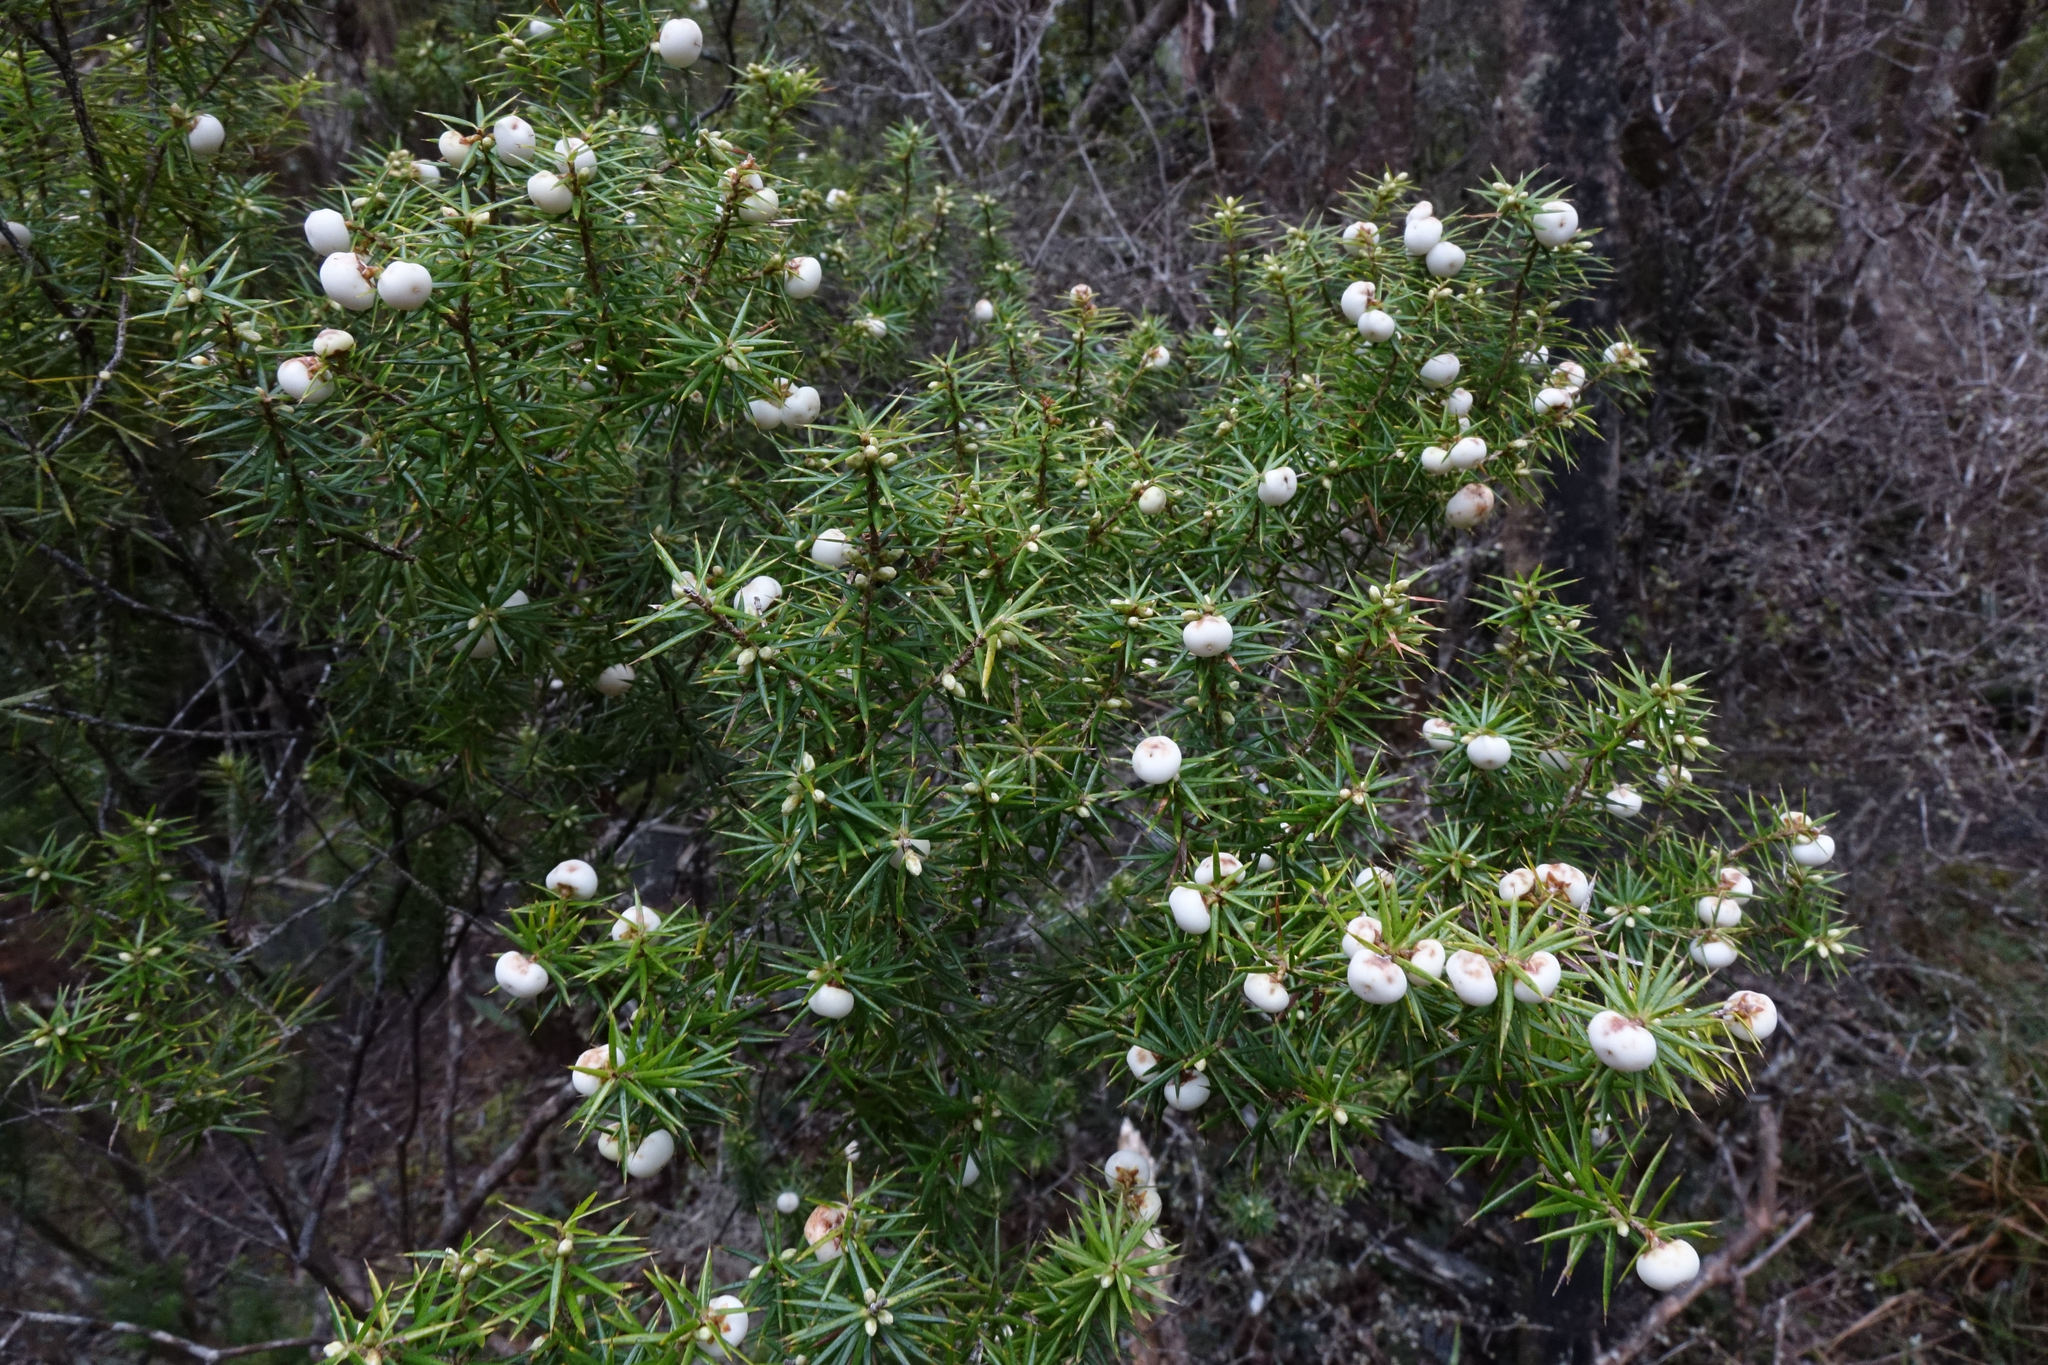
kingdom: Plantae
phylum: Tracheophyta
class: Magnoliopsida
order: Ericales
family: Ericaceae
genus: Leptecophylla
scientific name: Leptecophylla juniperina
